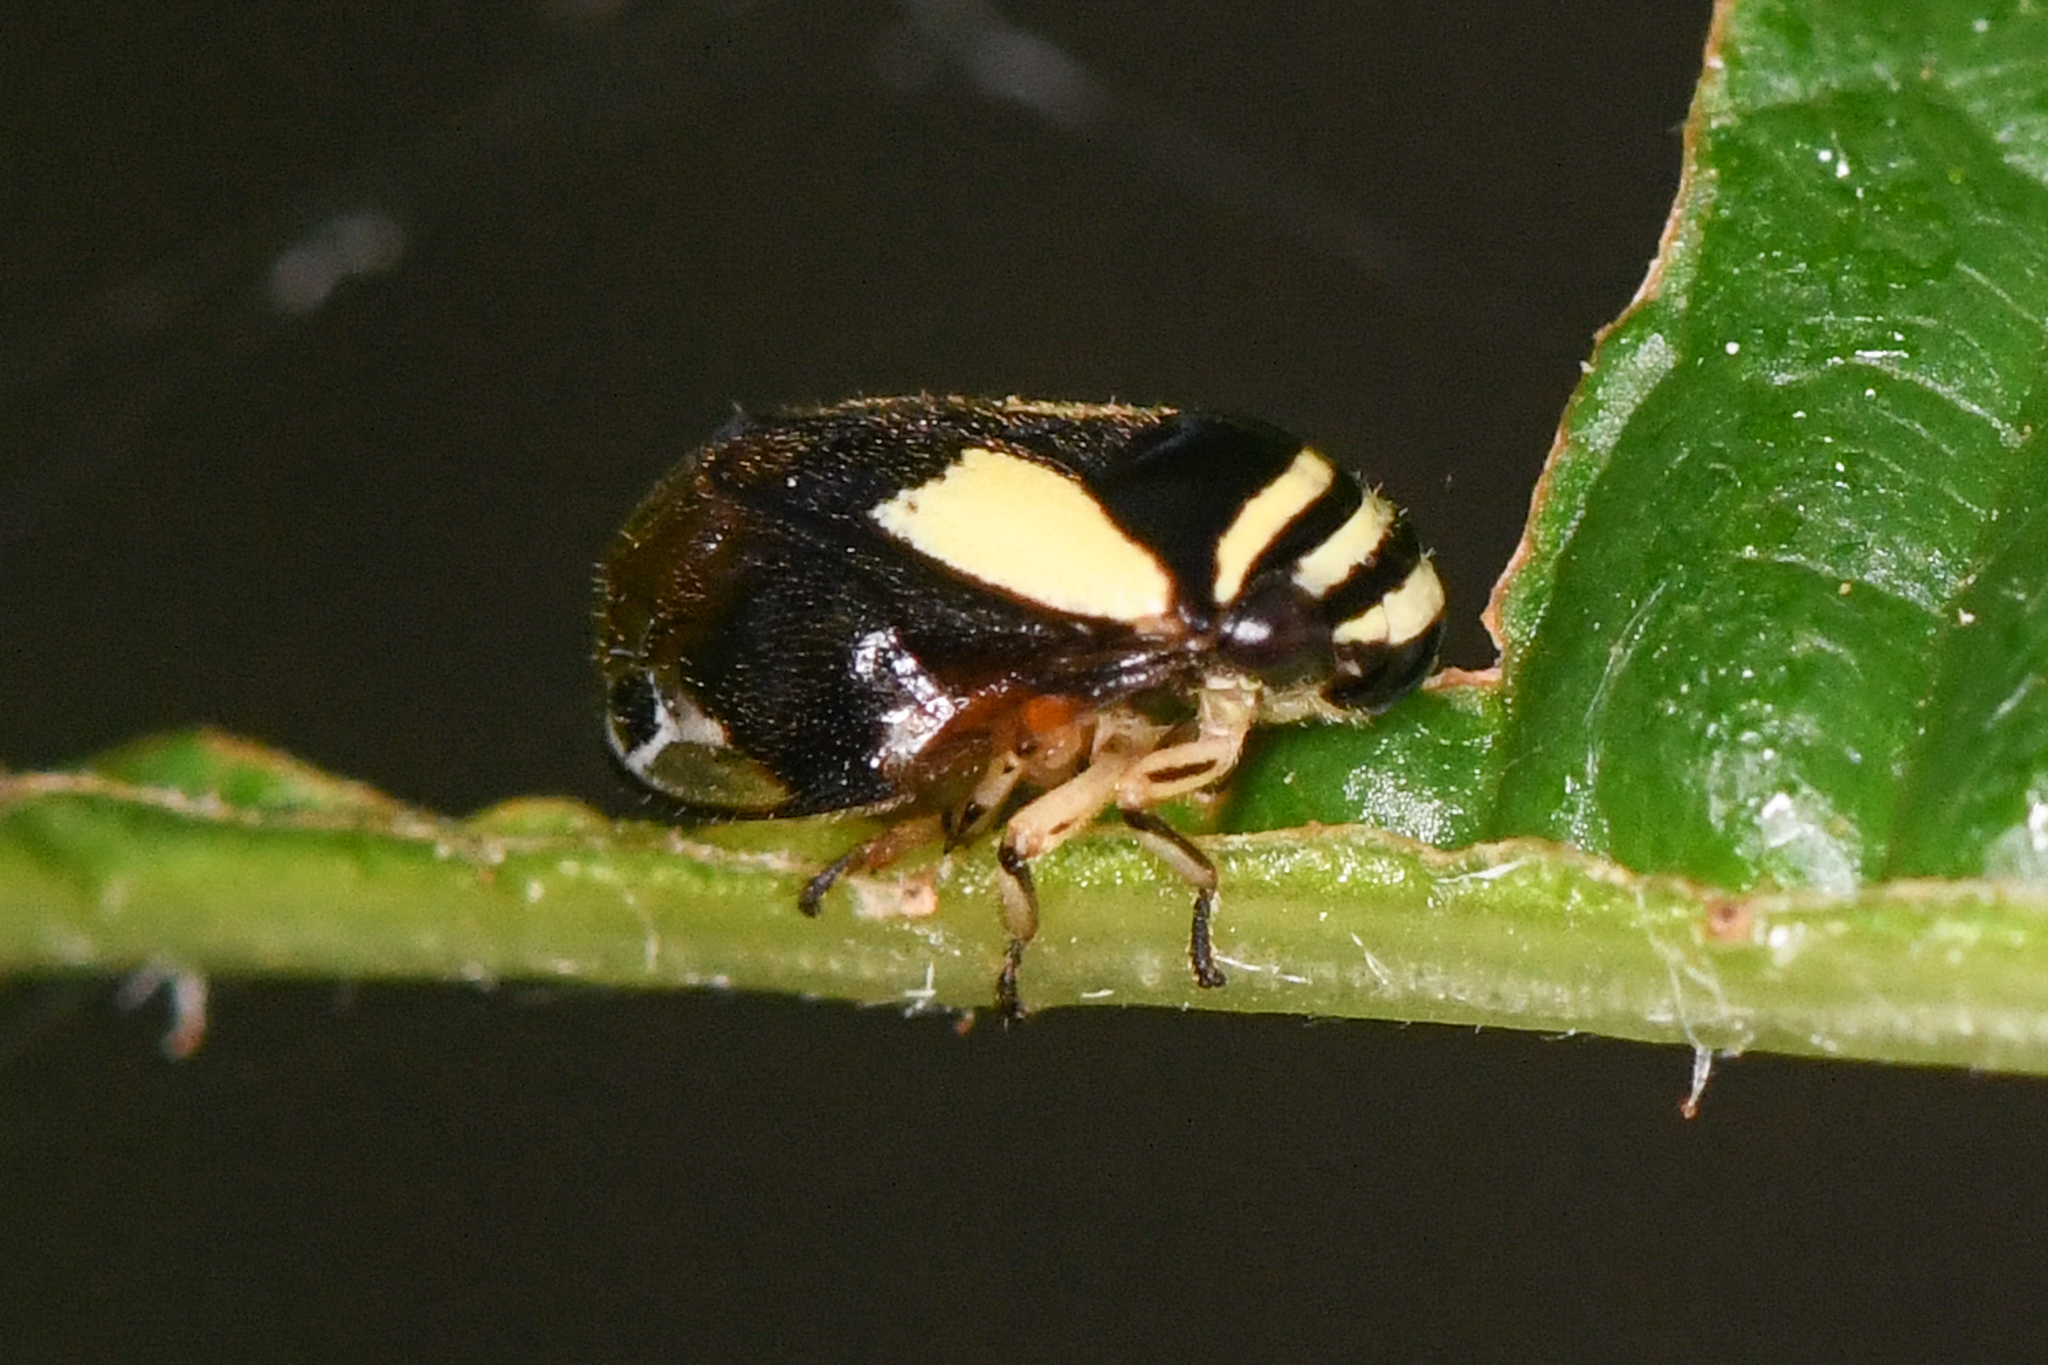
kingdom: Animalia
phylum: Arthropoda
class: Insecta
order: Hemiptera
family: Clastopteridae
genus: Clastoptera
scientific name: Clastoptera proteus
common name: Dogwood spittlebug
